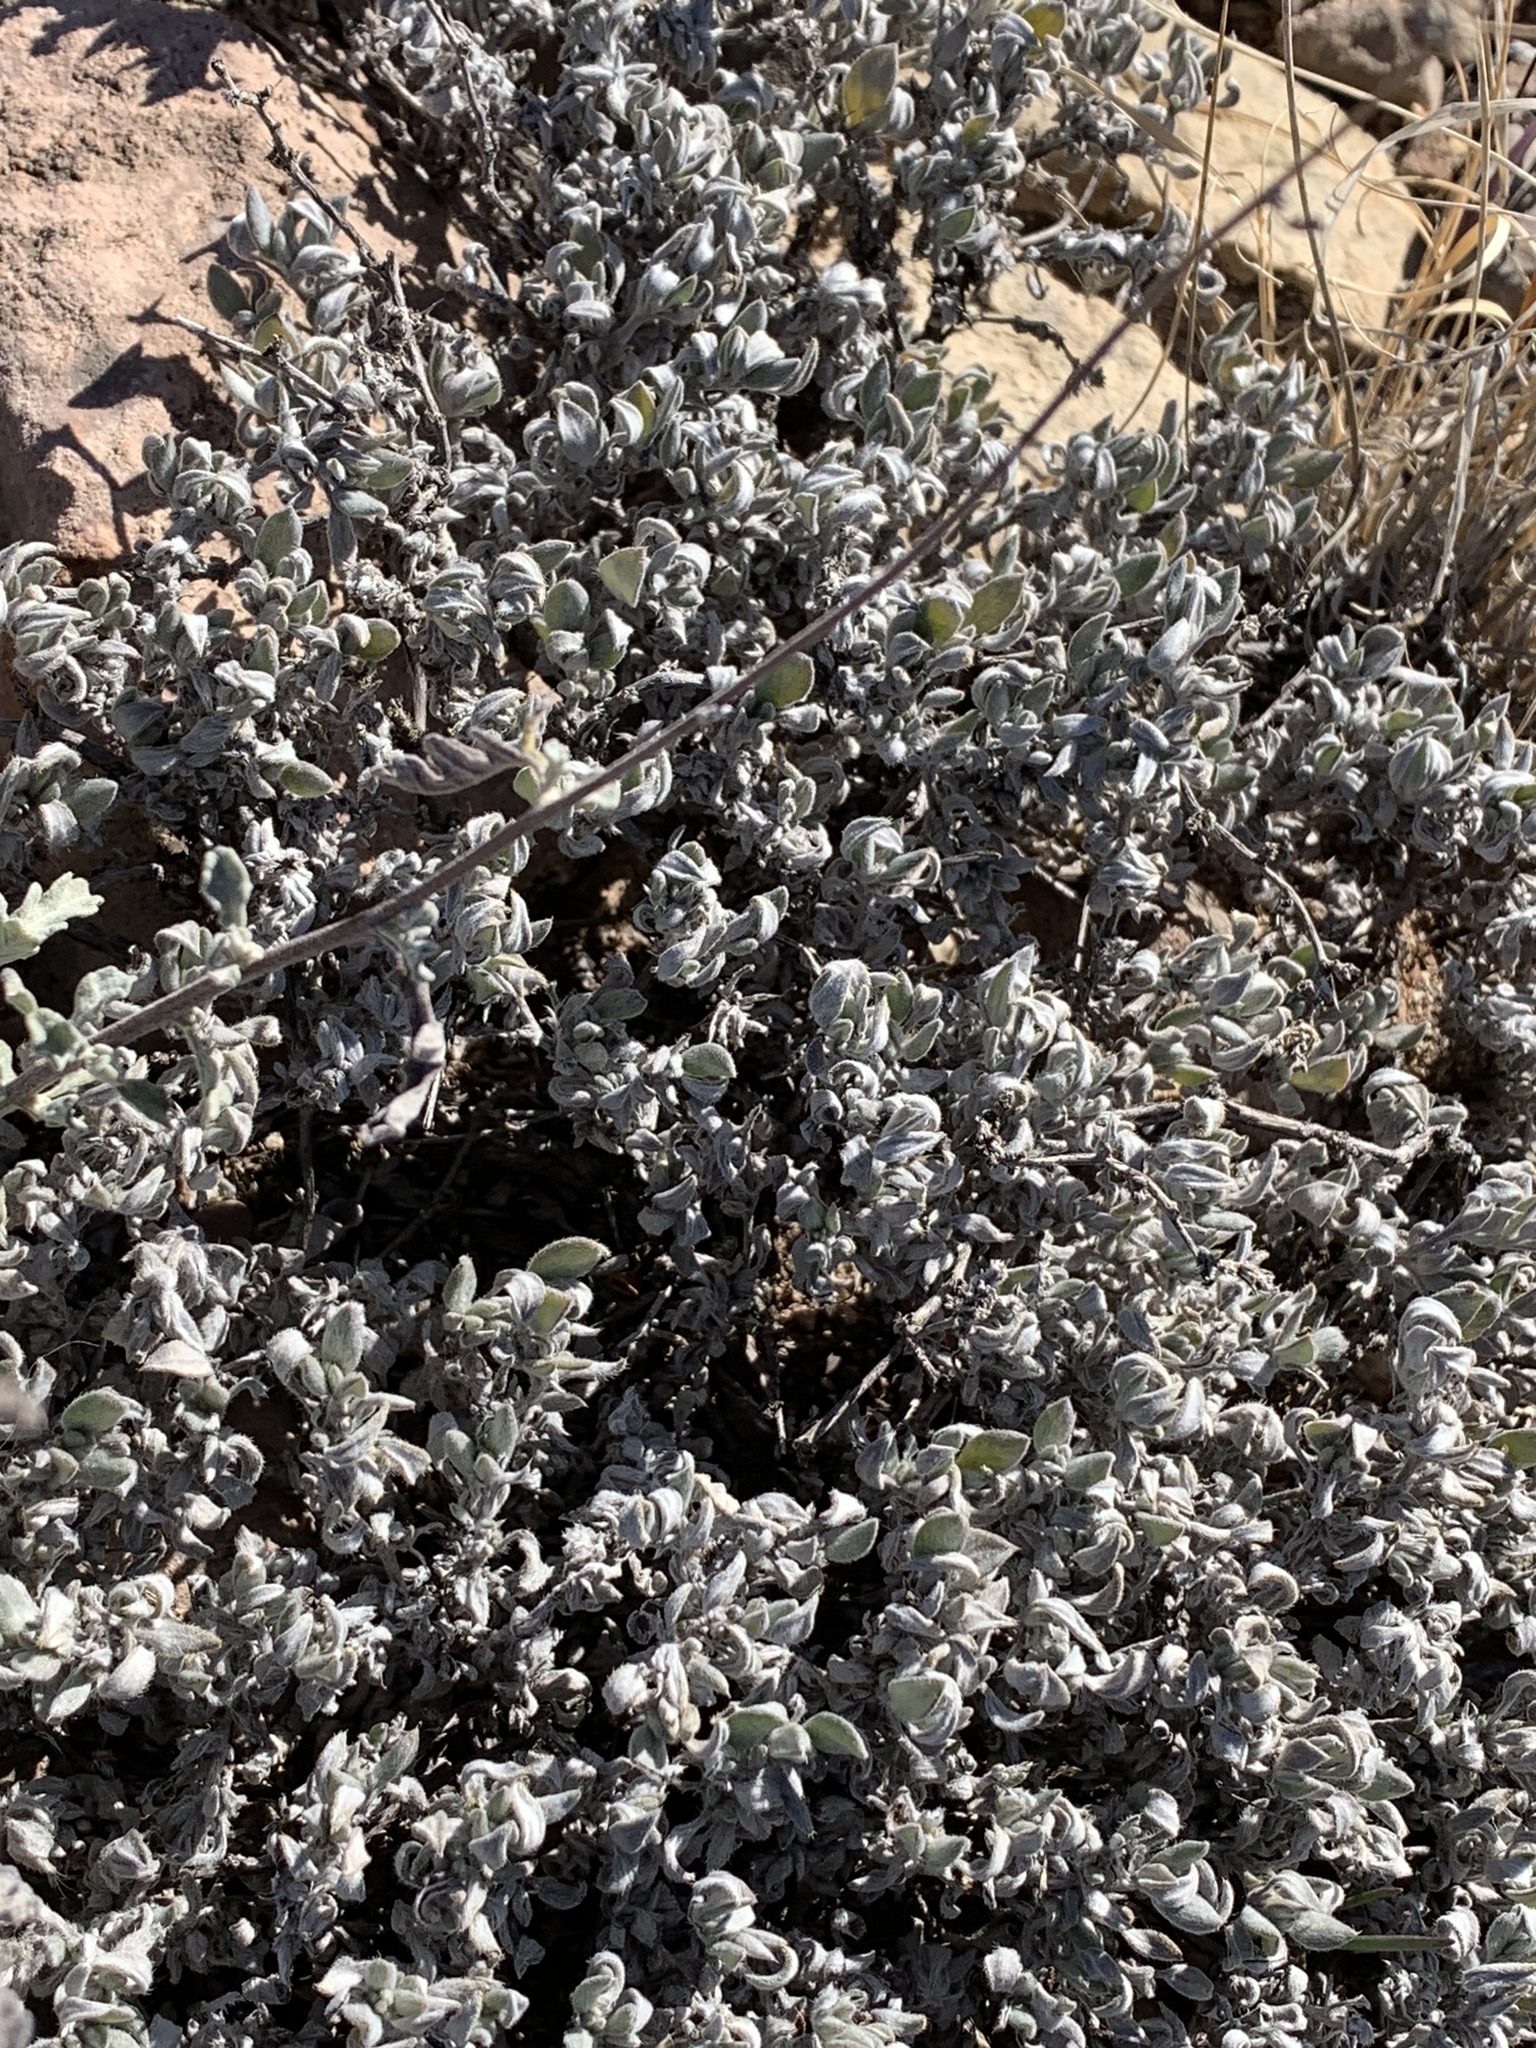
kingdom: Plantae
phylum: Tracheophyta
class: Magnoliopsida
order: Boraginales
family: Ehretiaceae
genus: Tiquilia
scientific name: Tiquilia canescens
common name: Hairy tiquilia
